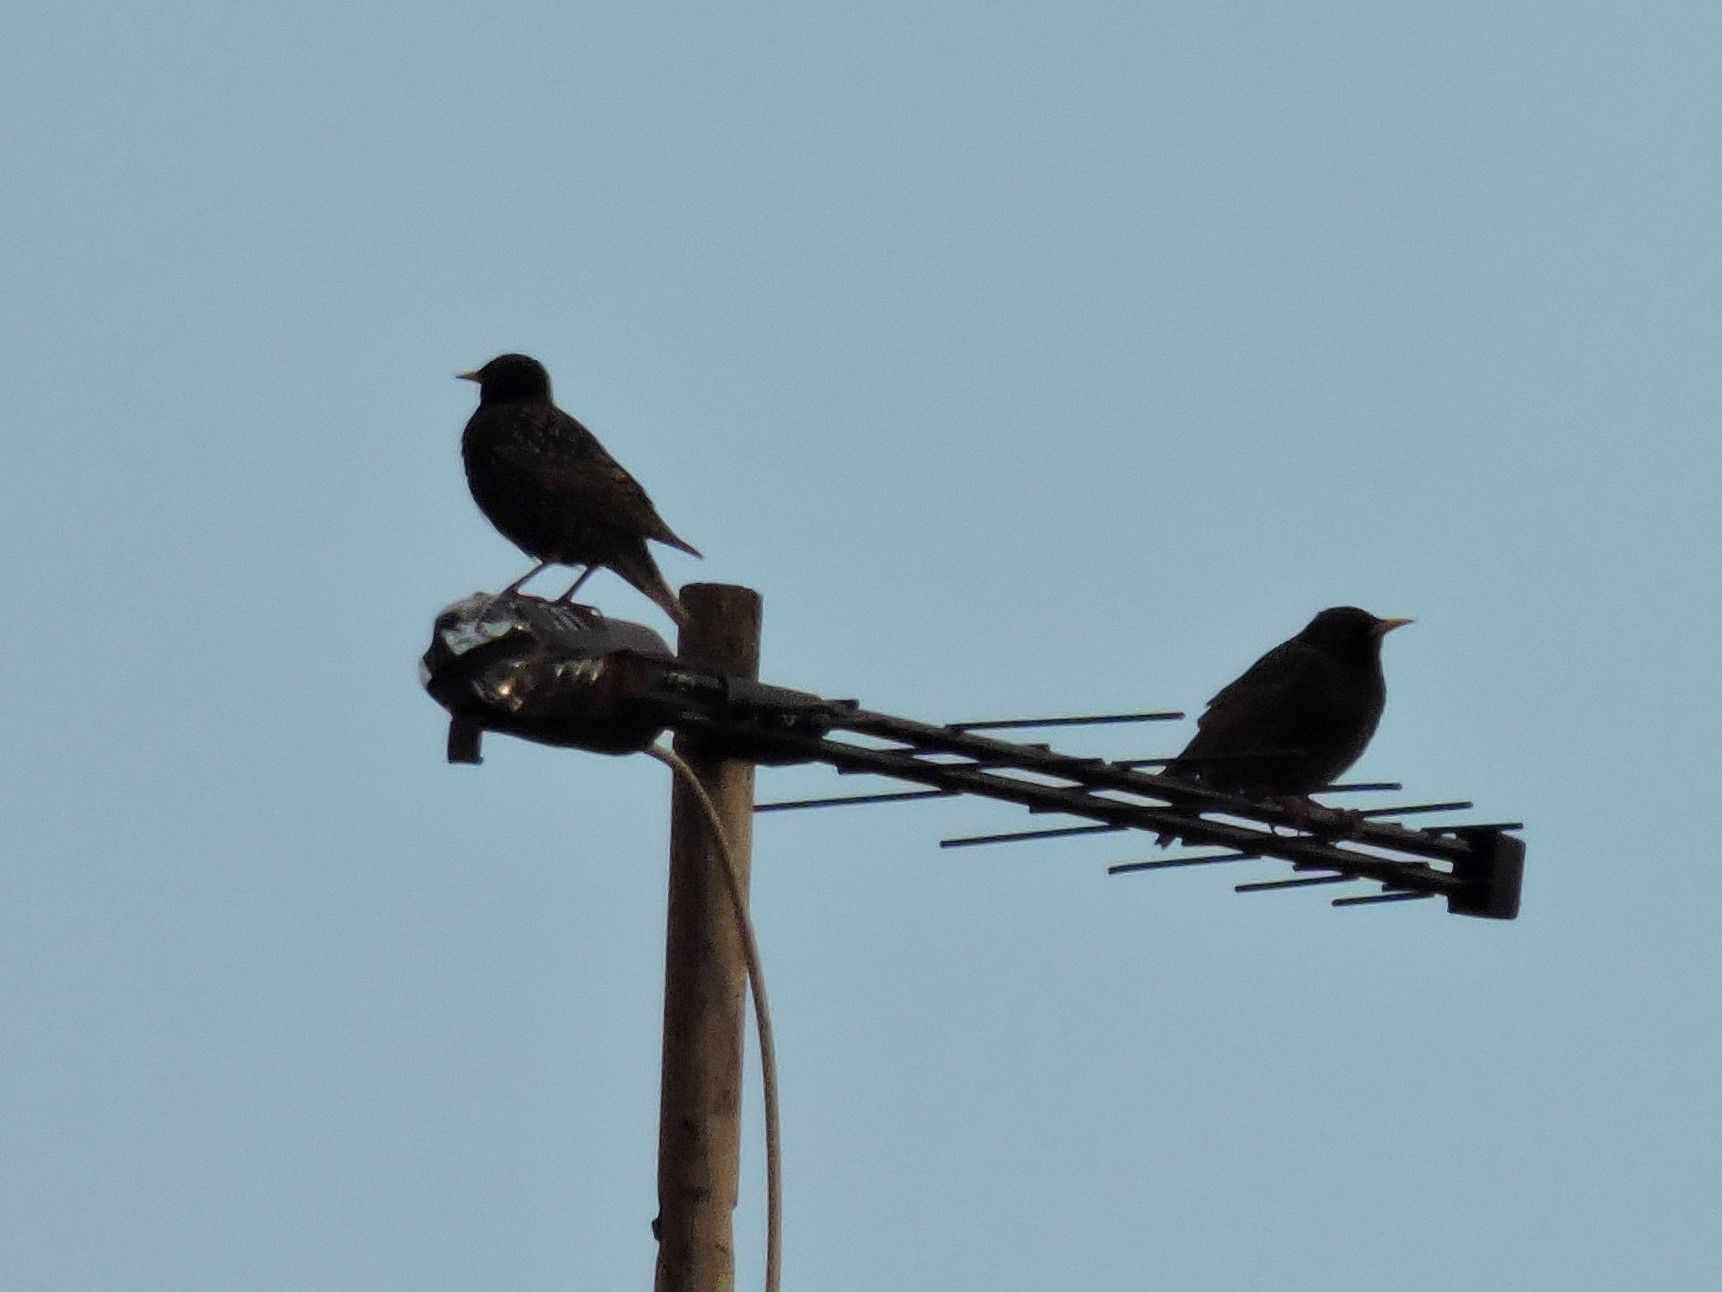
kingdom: Animalia
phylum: Chordata
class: Aves
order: Passeriformes
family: Sturnidae
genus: Sturnus
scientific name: Sturnus vulgaris
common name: Common starling
